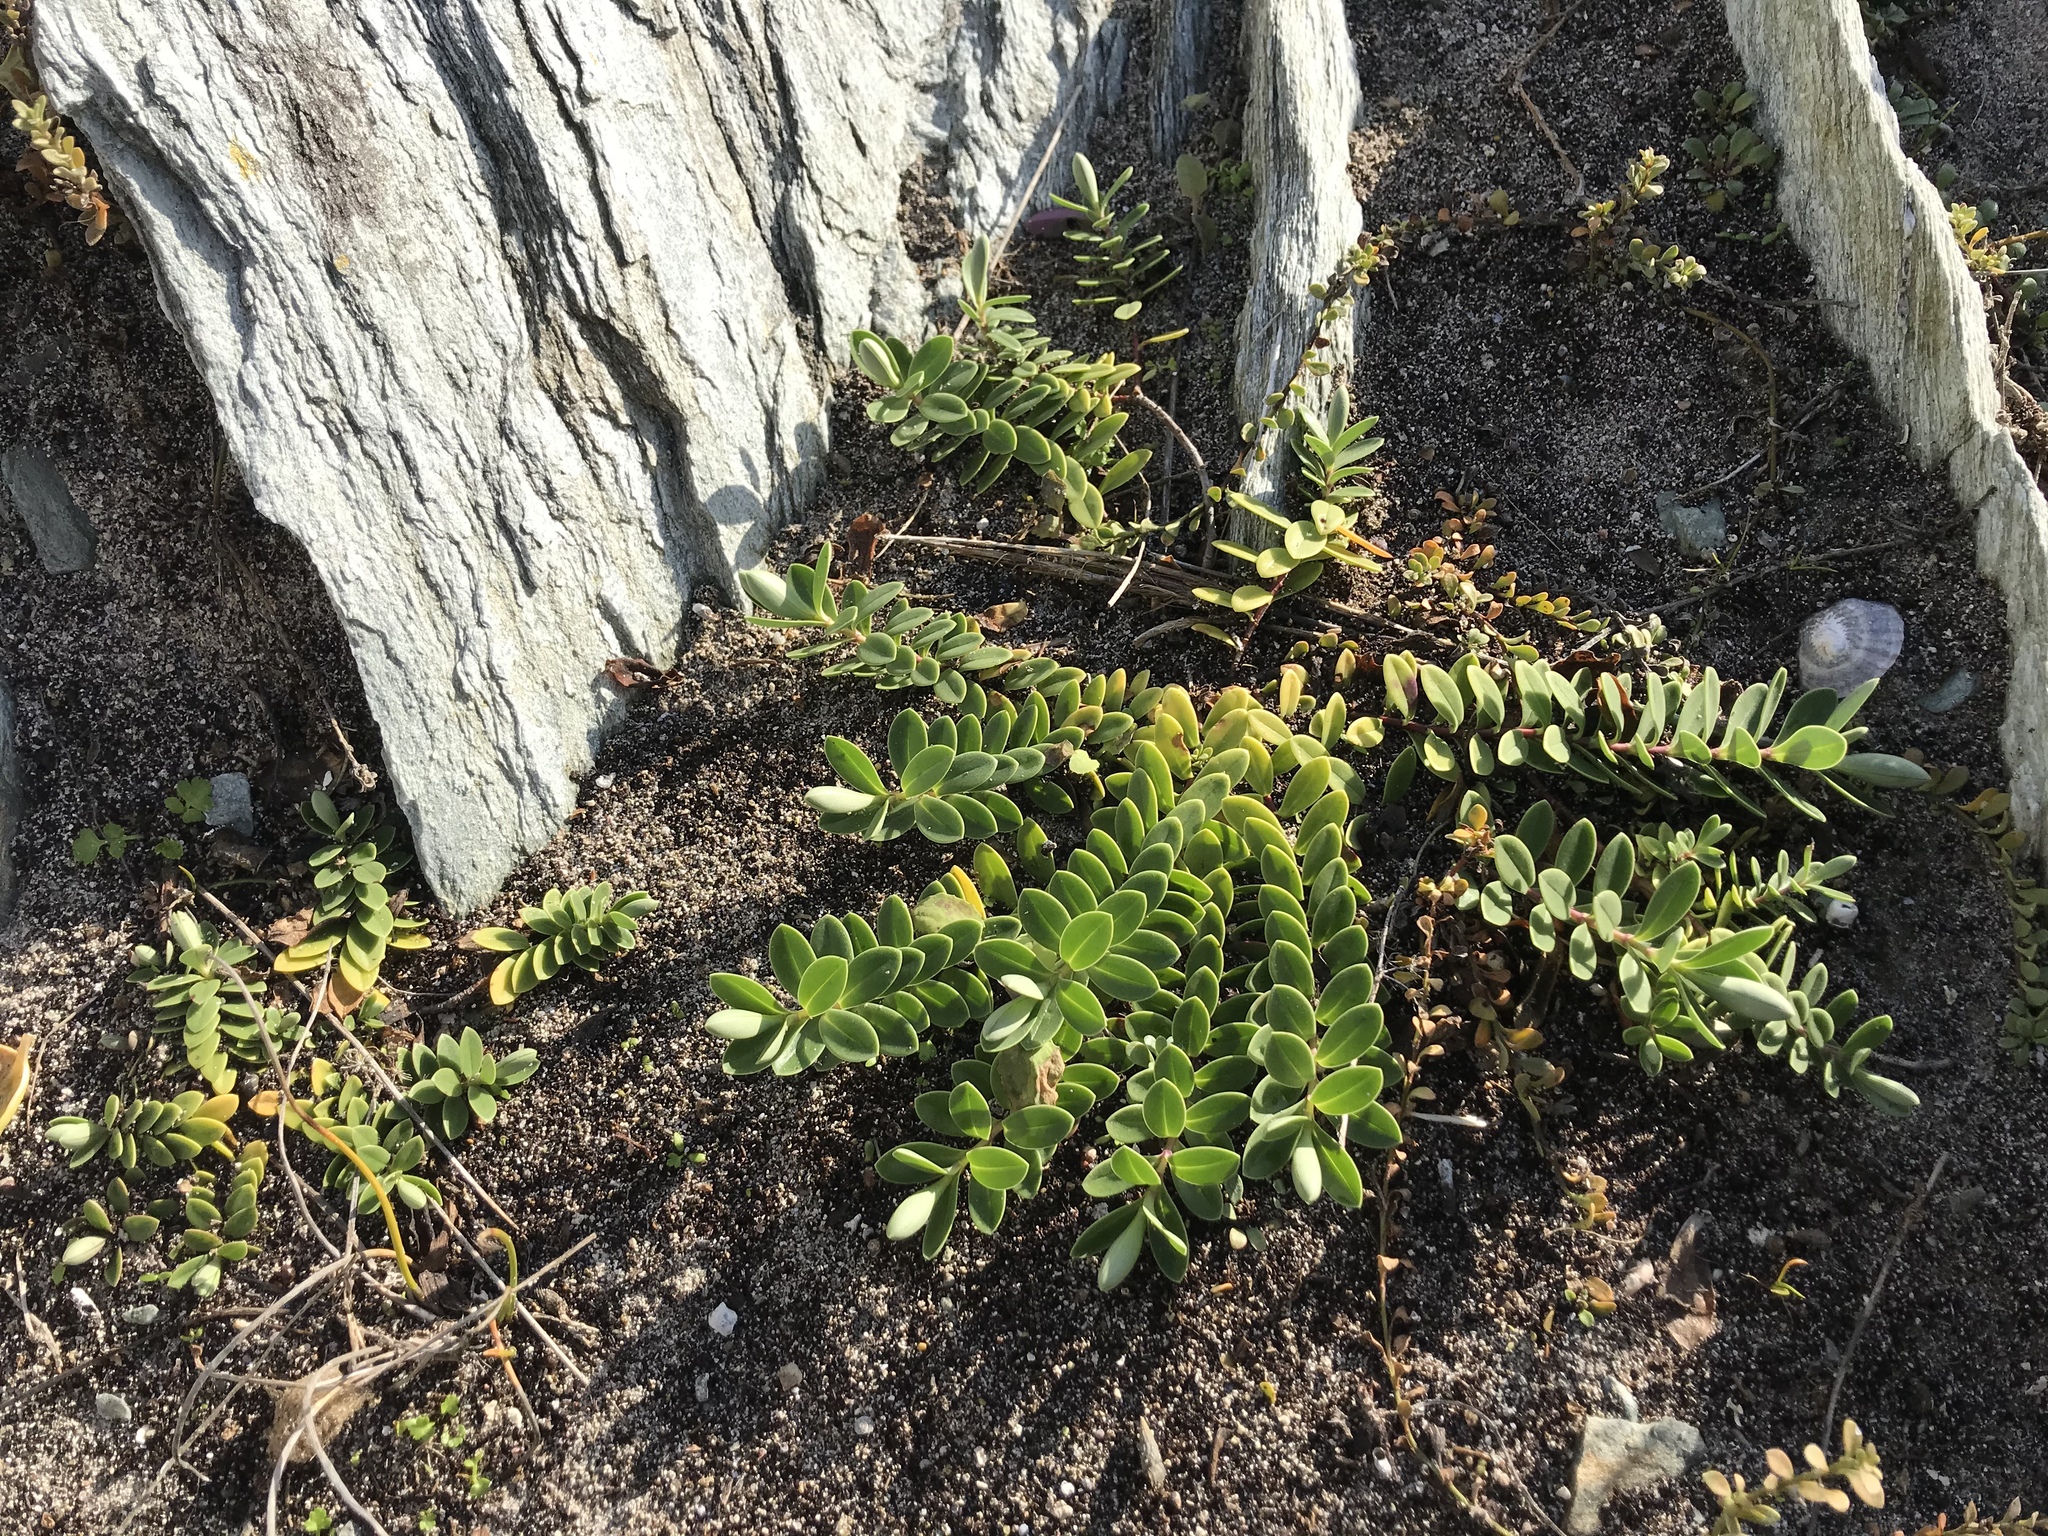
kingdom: Plantae
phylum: Tracheophyta
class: Magnoliopsida
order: Lamiales
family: Plantaginaceae
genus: Veronica
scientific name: Veronica chathamica
